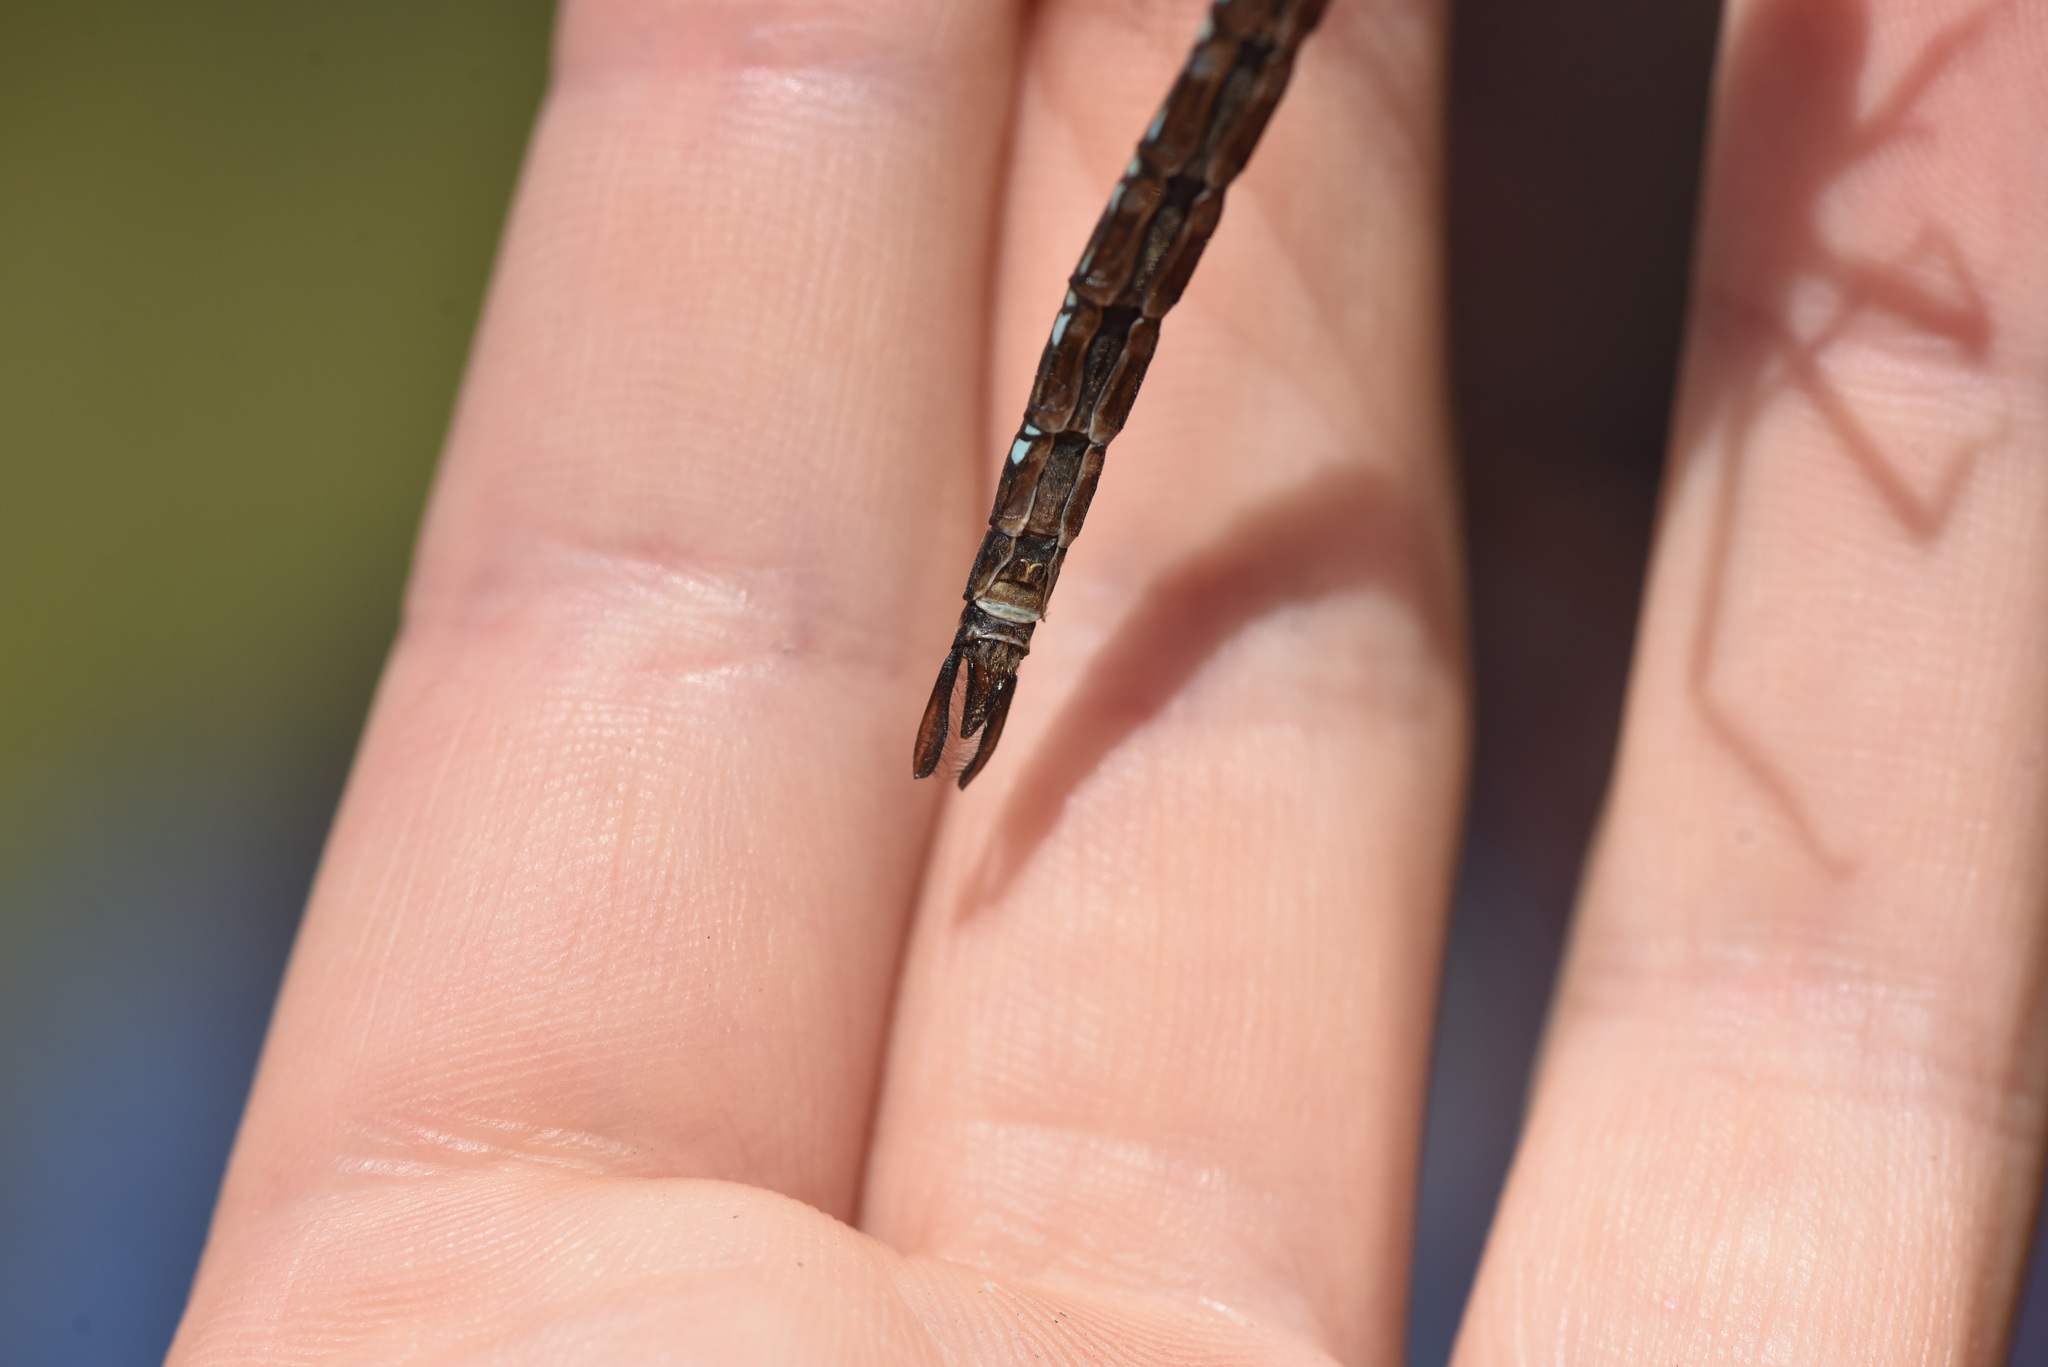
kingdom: Animalia
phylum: Arthropoda
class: Insecta
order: Odonata
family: Aeshnidae
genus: Aeshna
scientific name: Aeshna juncea
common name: Moorland hawker
